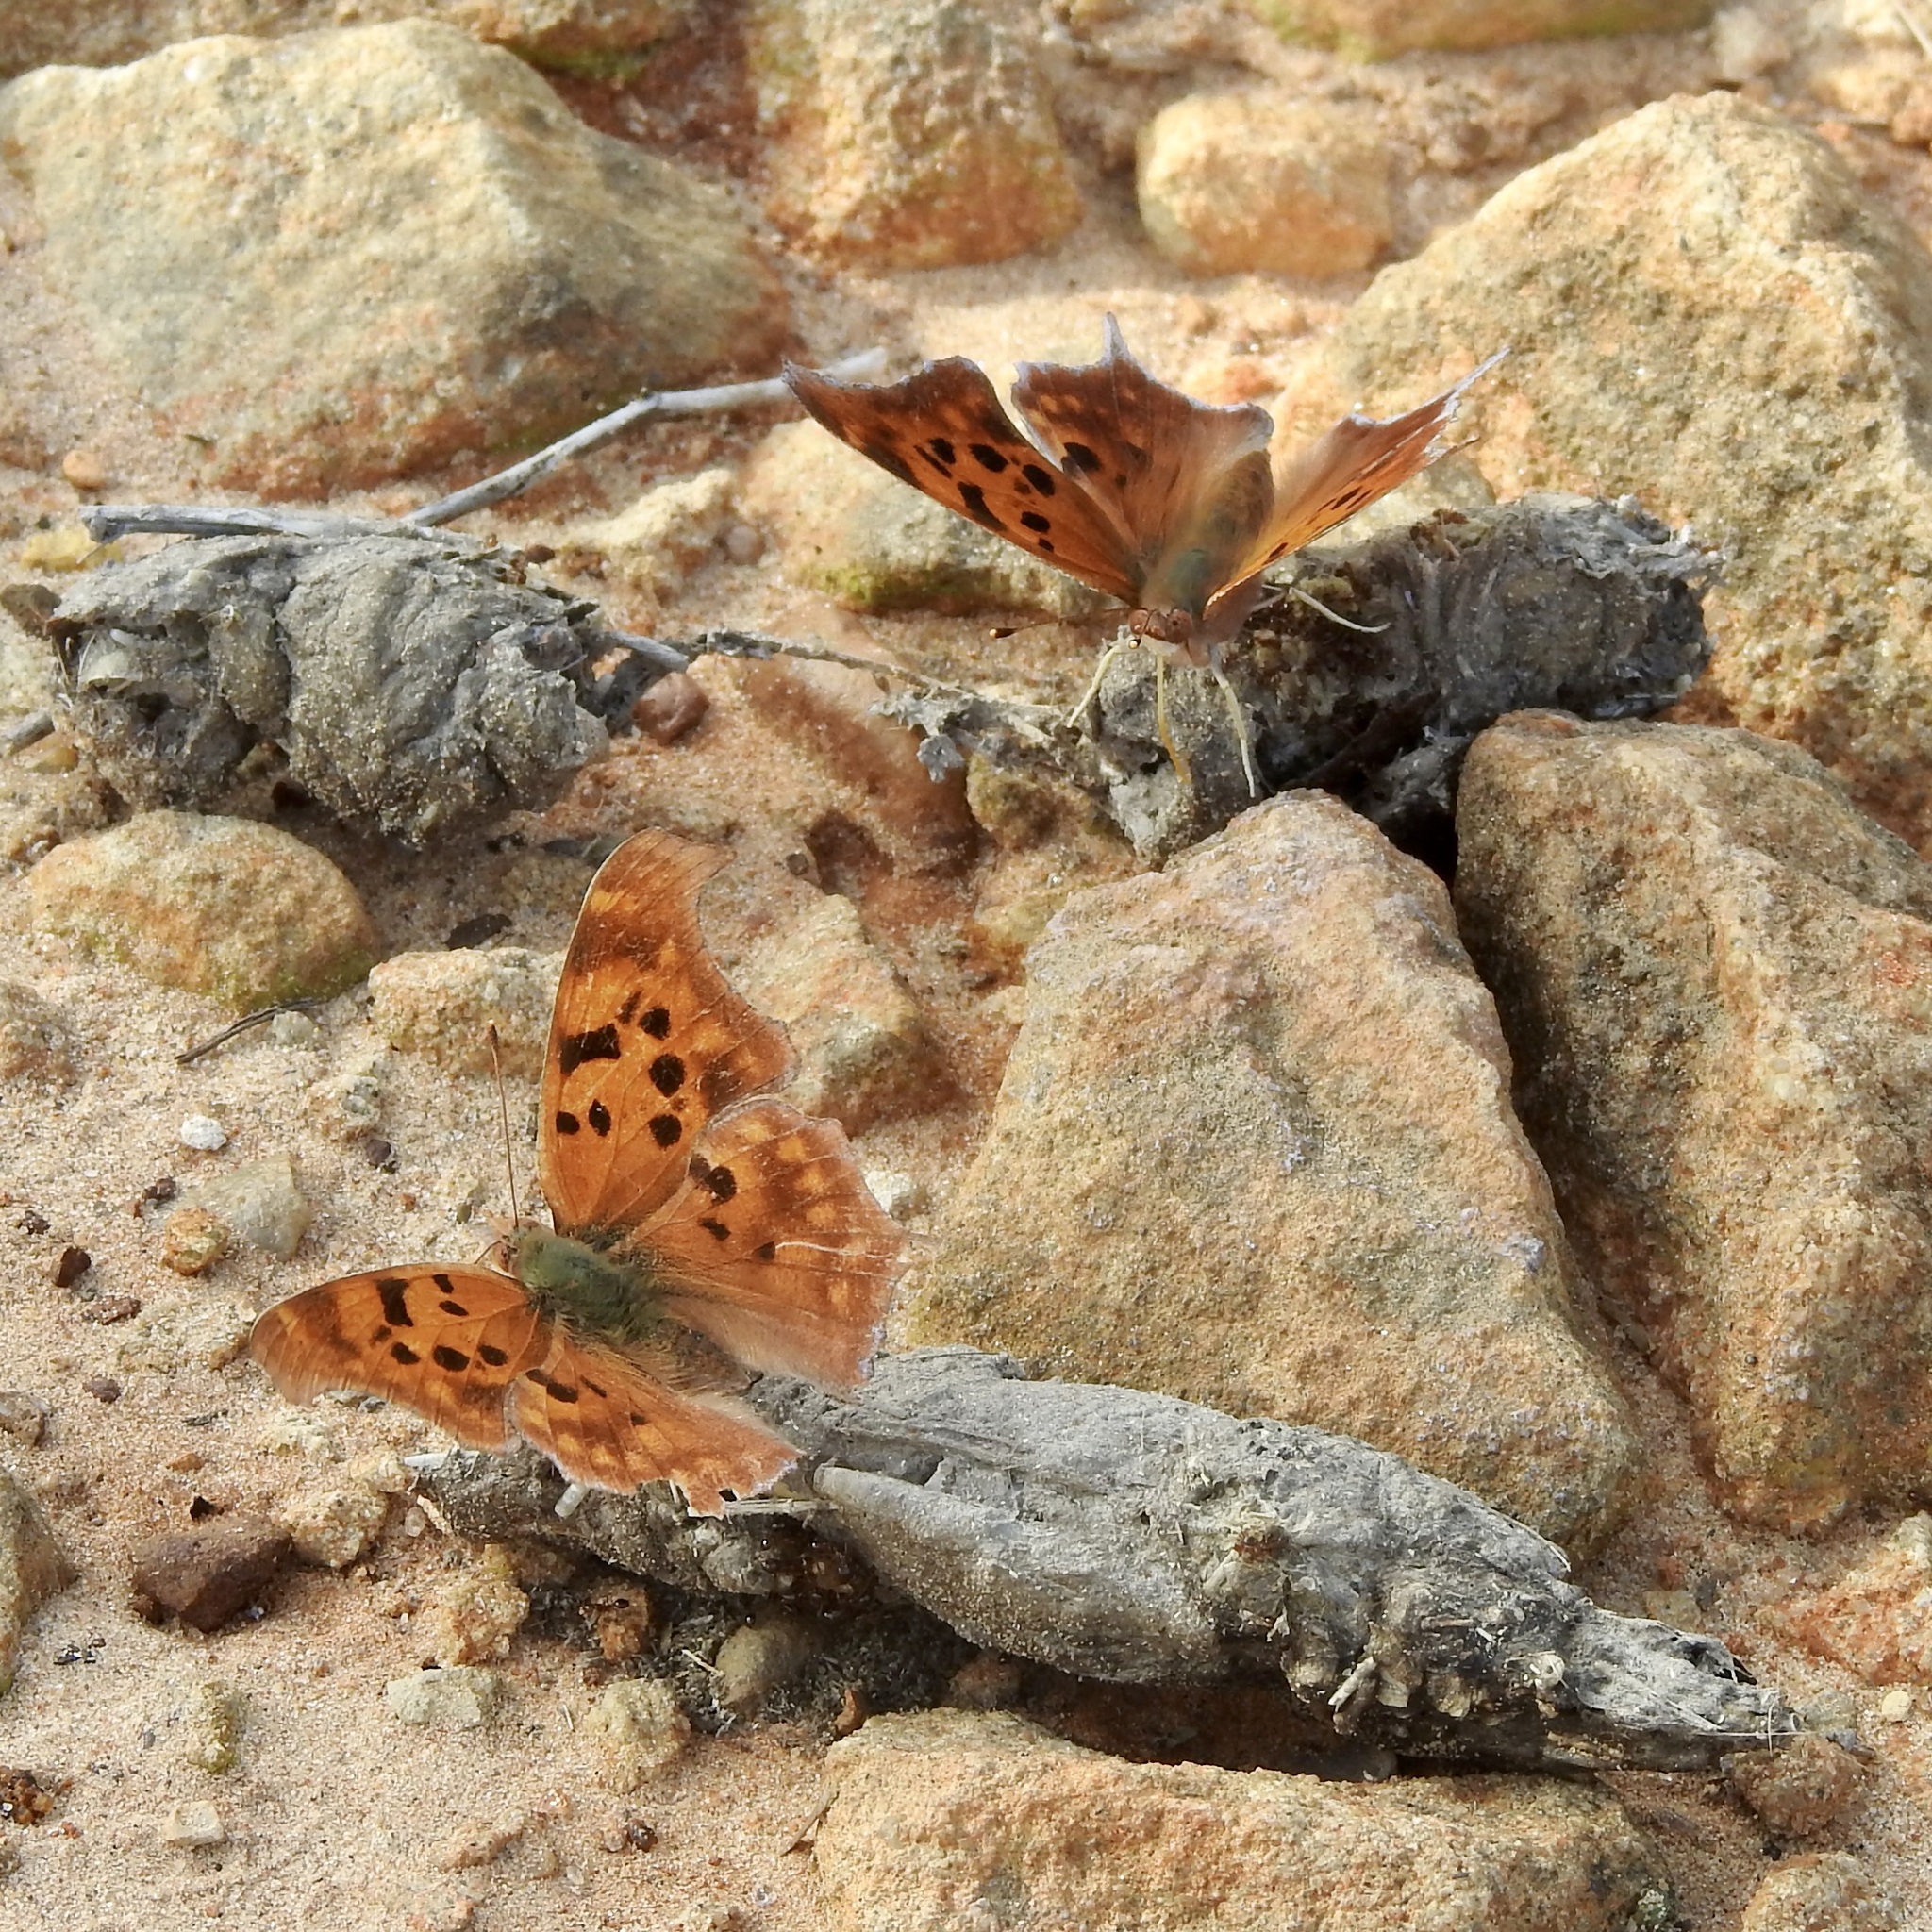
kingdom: Animalia
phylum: Arthropoda
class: Insecta
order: Lepidoptera
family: Nymphalidae
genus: Polygonia
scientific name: Polygonia interrogationis
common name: Question mark
